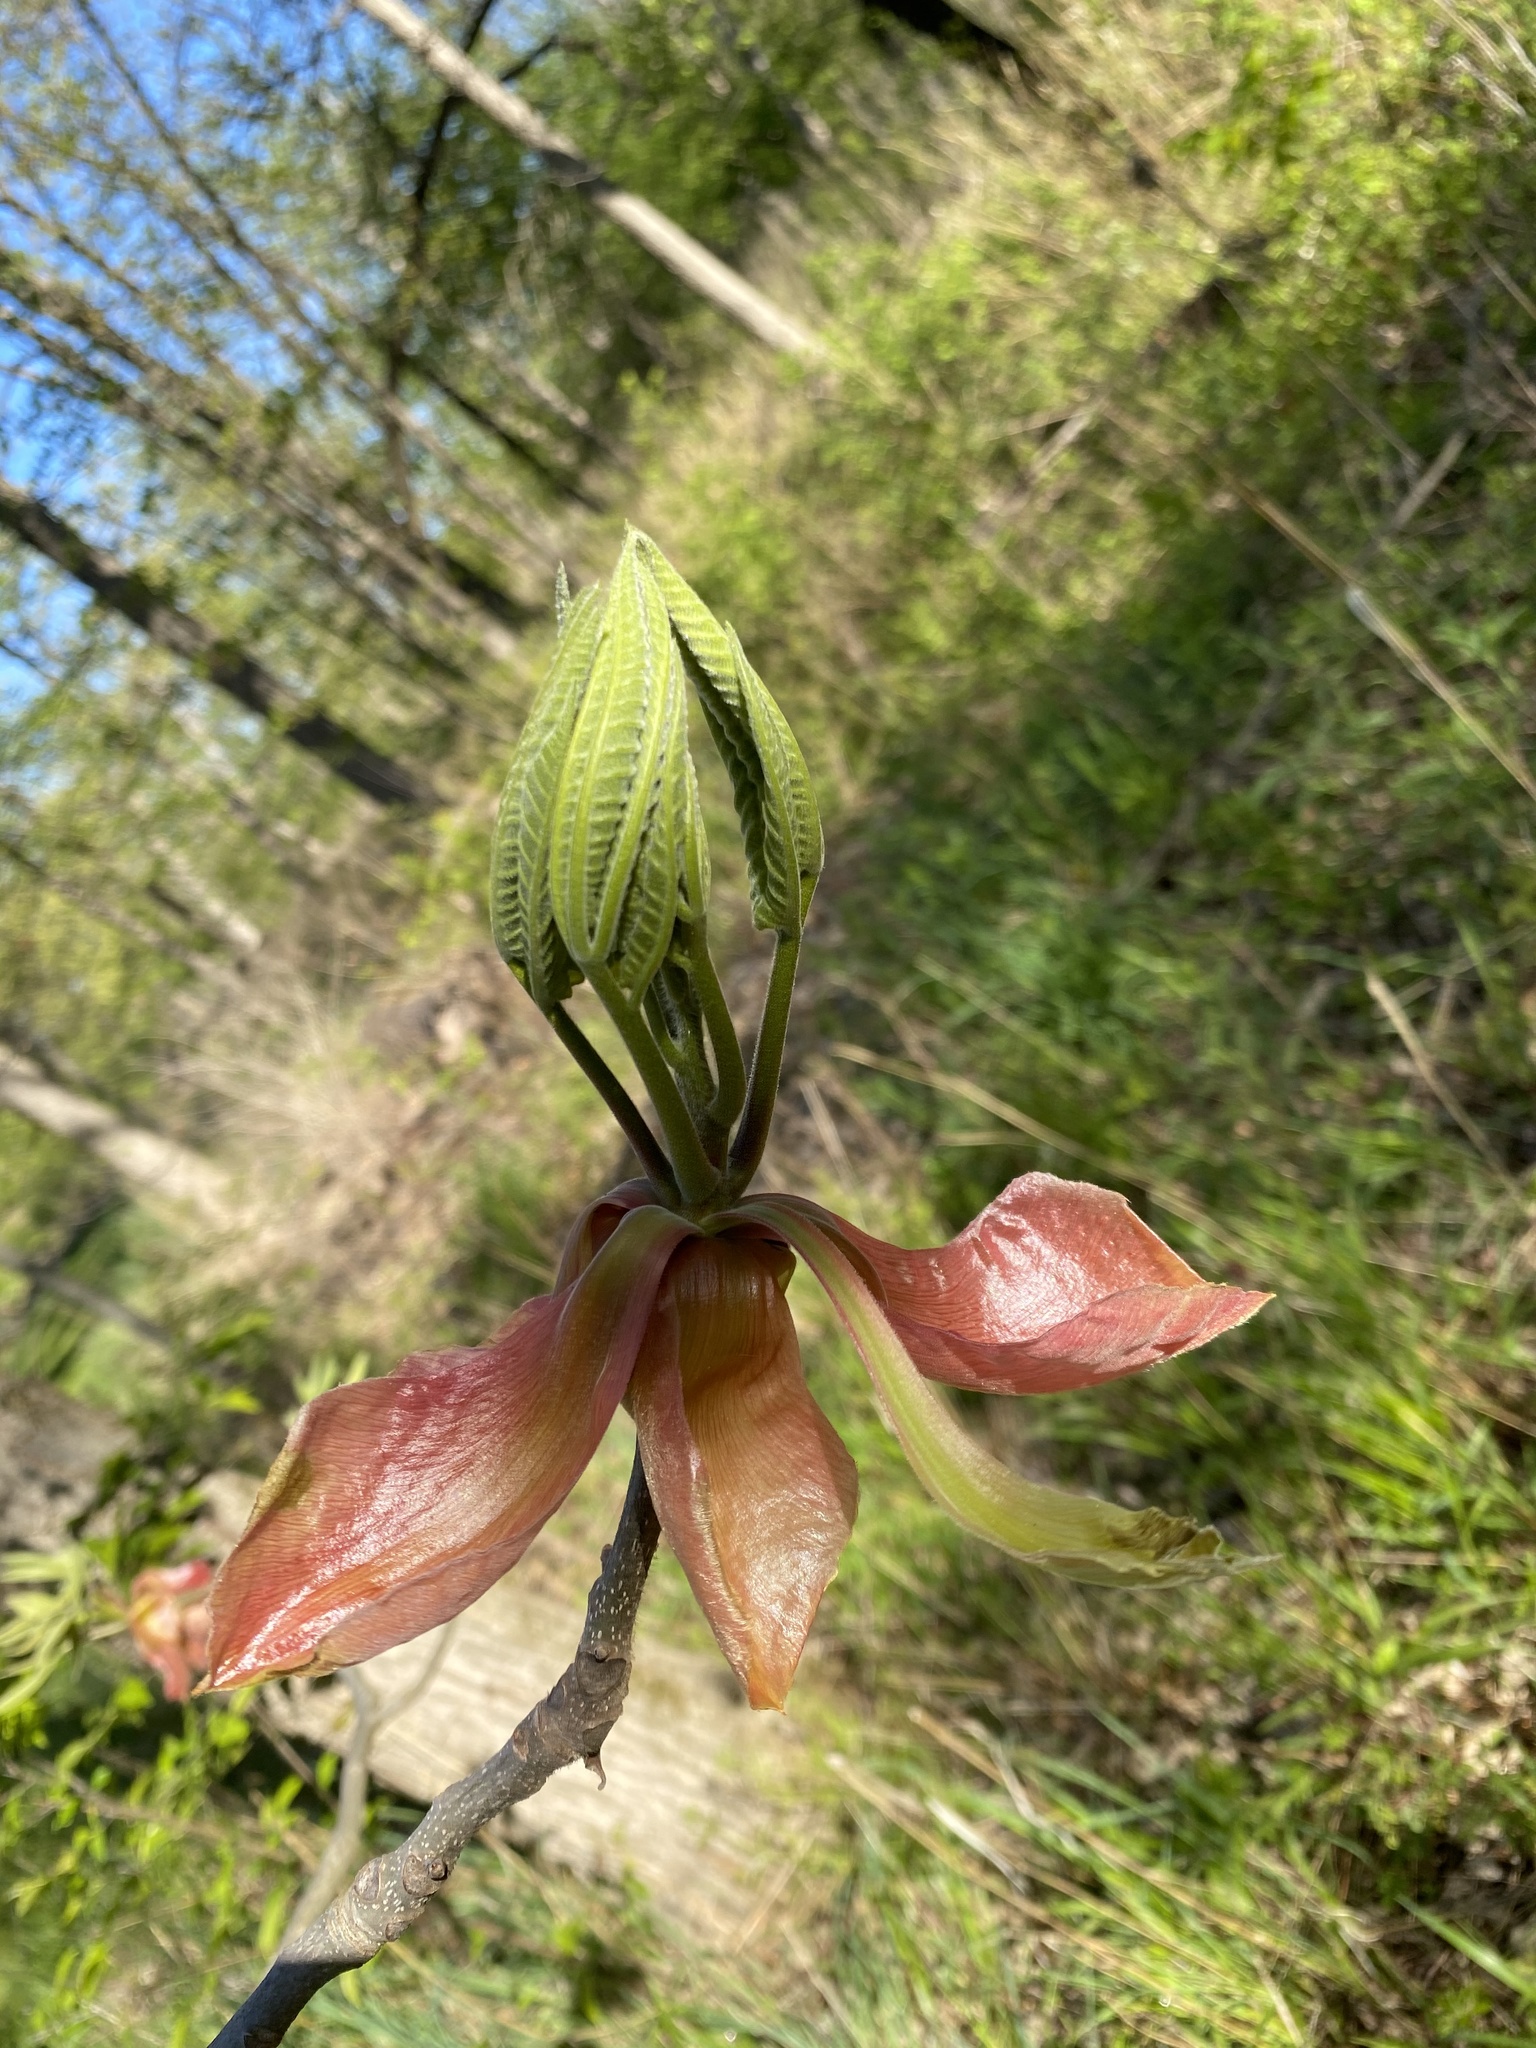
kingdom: Plantae
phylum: Tracheophyta
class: Magnoliopsida
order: Fagales
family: Juglandaceae
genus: Carya
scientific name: Carya ovata
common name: Shagbark hickory
